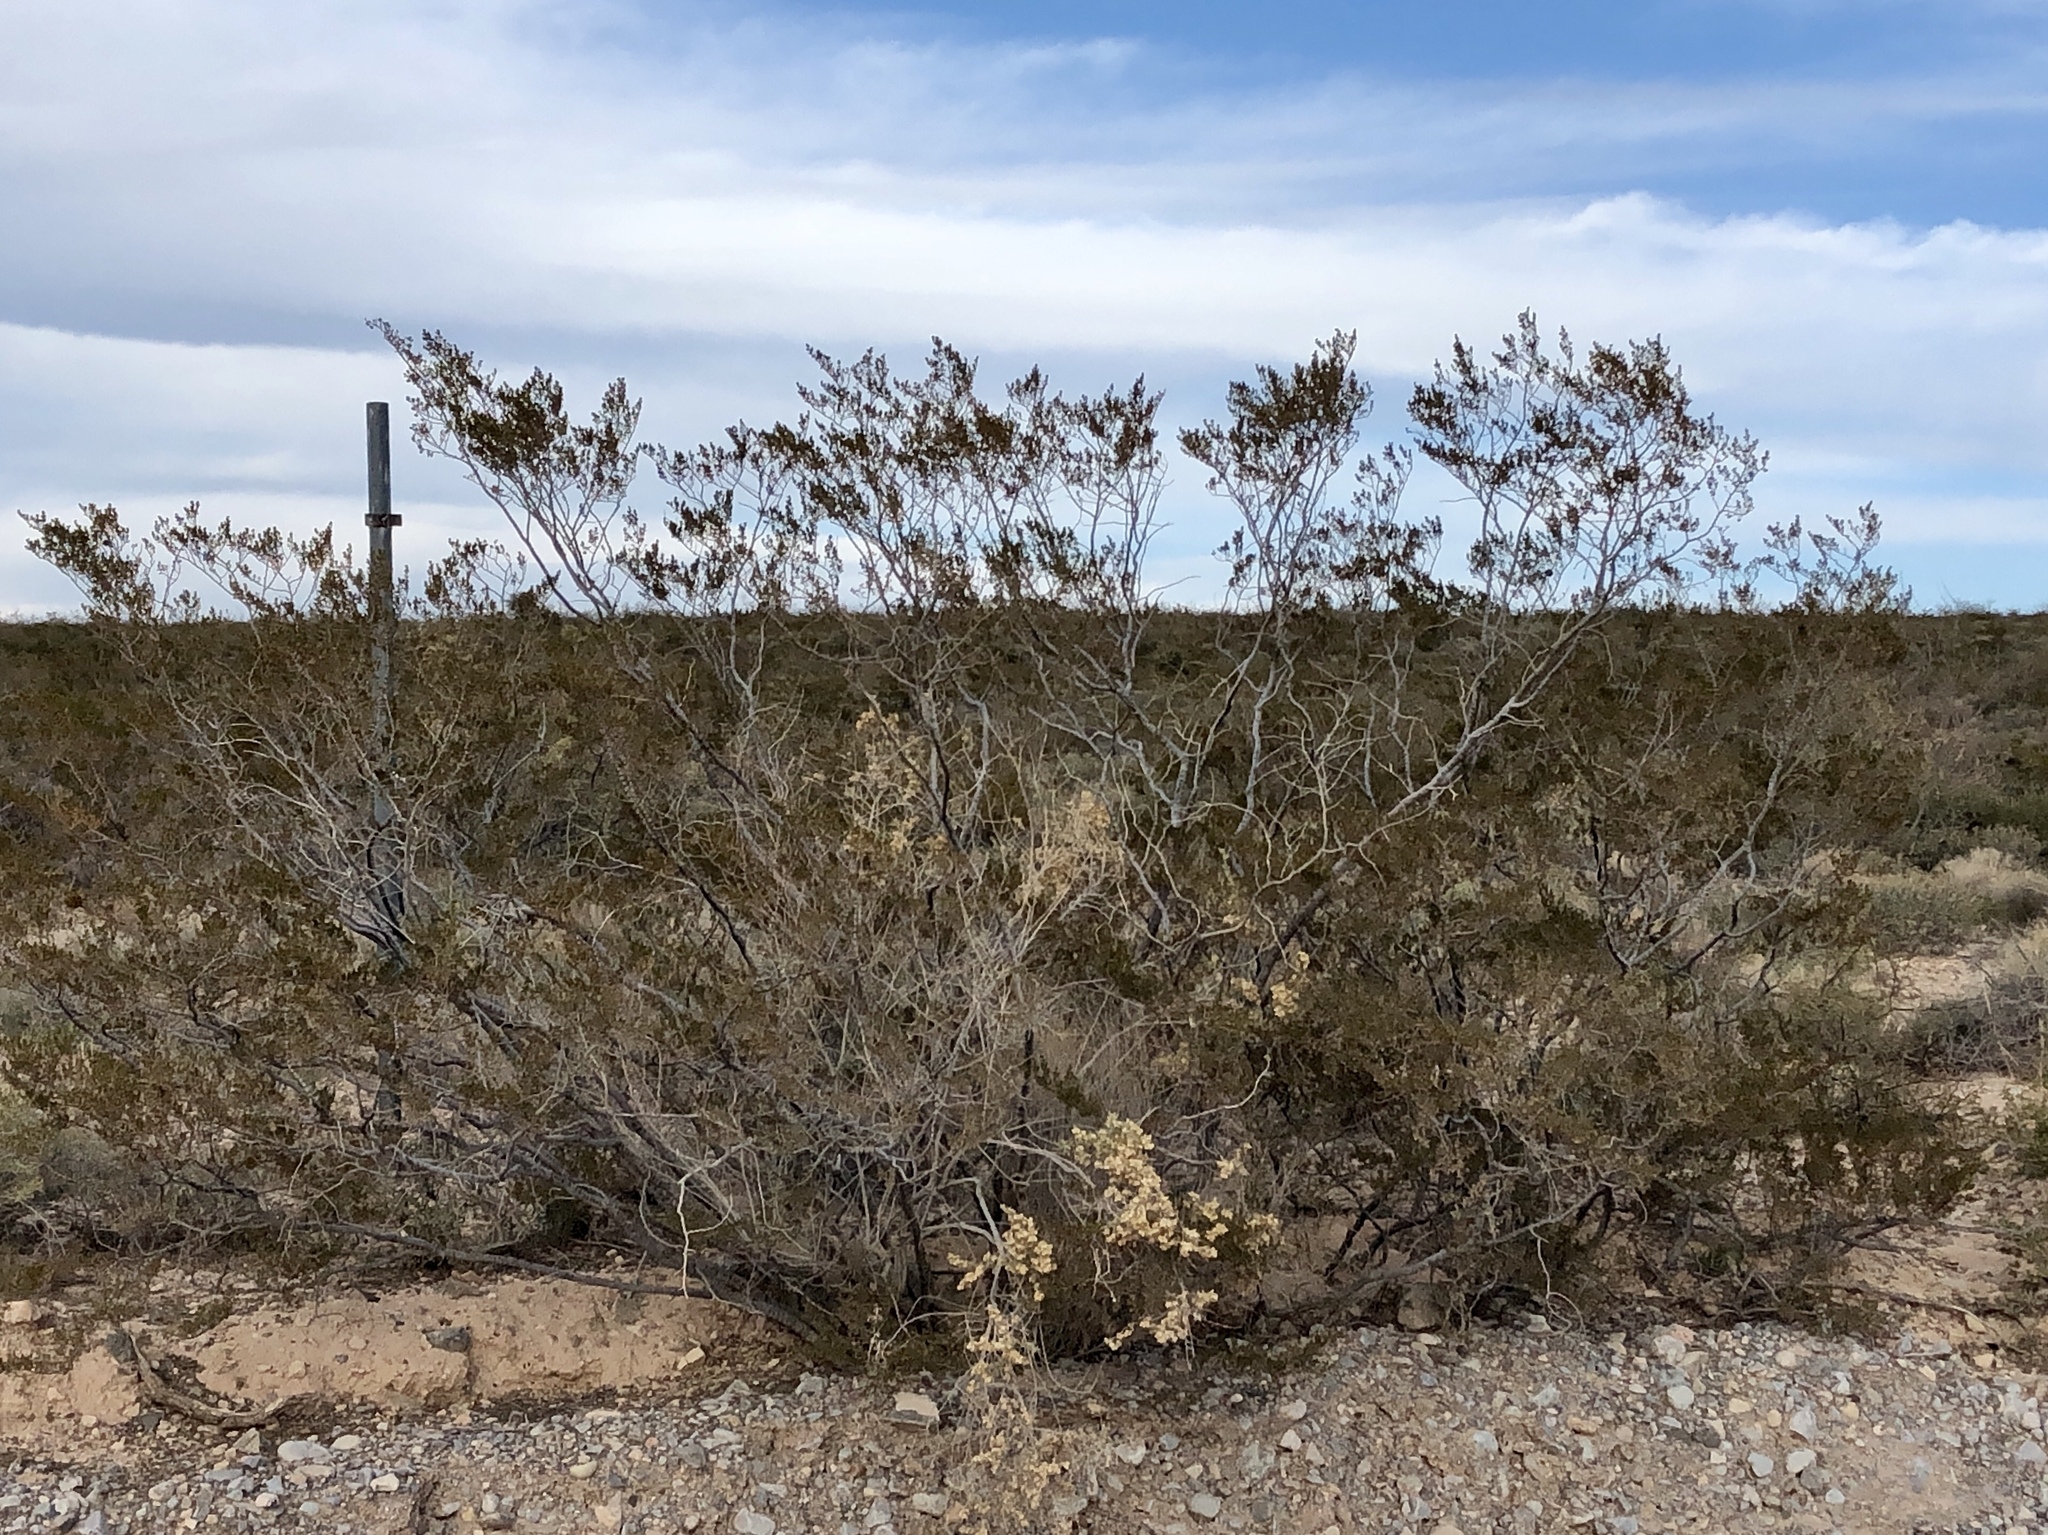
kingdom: Plantae
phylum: Tracheophyta
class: Magnoliopsida
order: Zygophyllales
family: Zygophyllaceae
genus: Larrea
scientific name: Larrea tridentata
